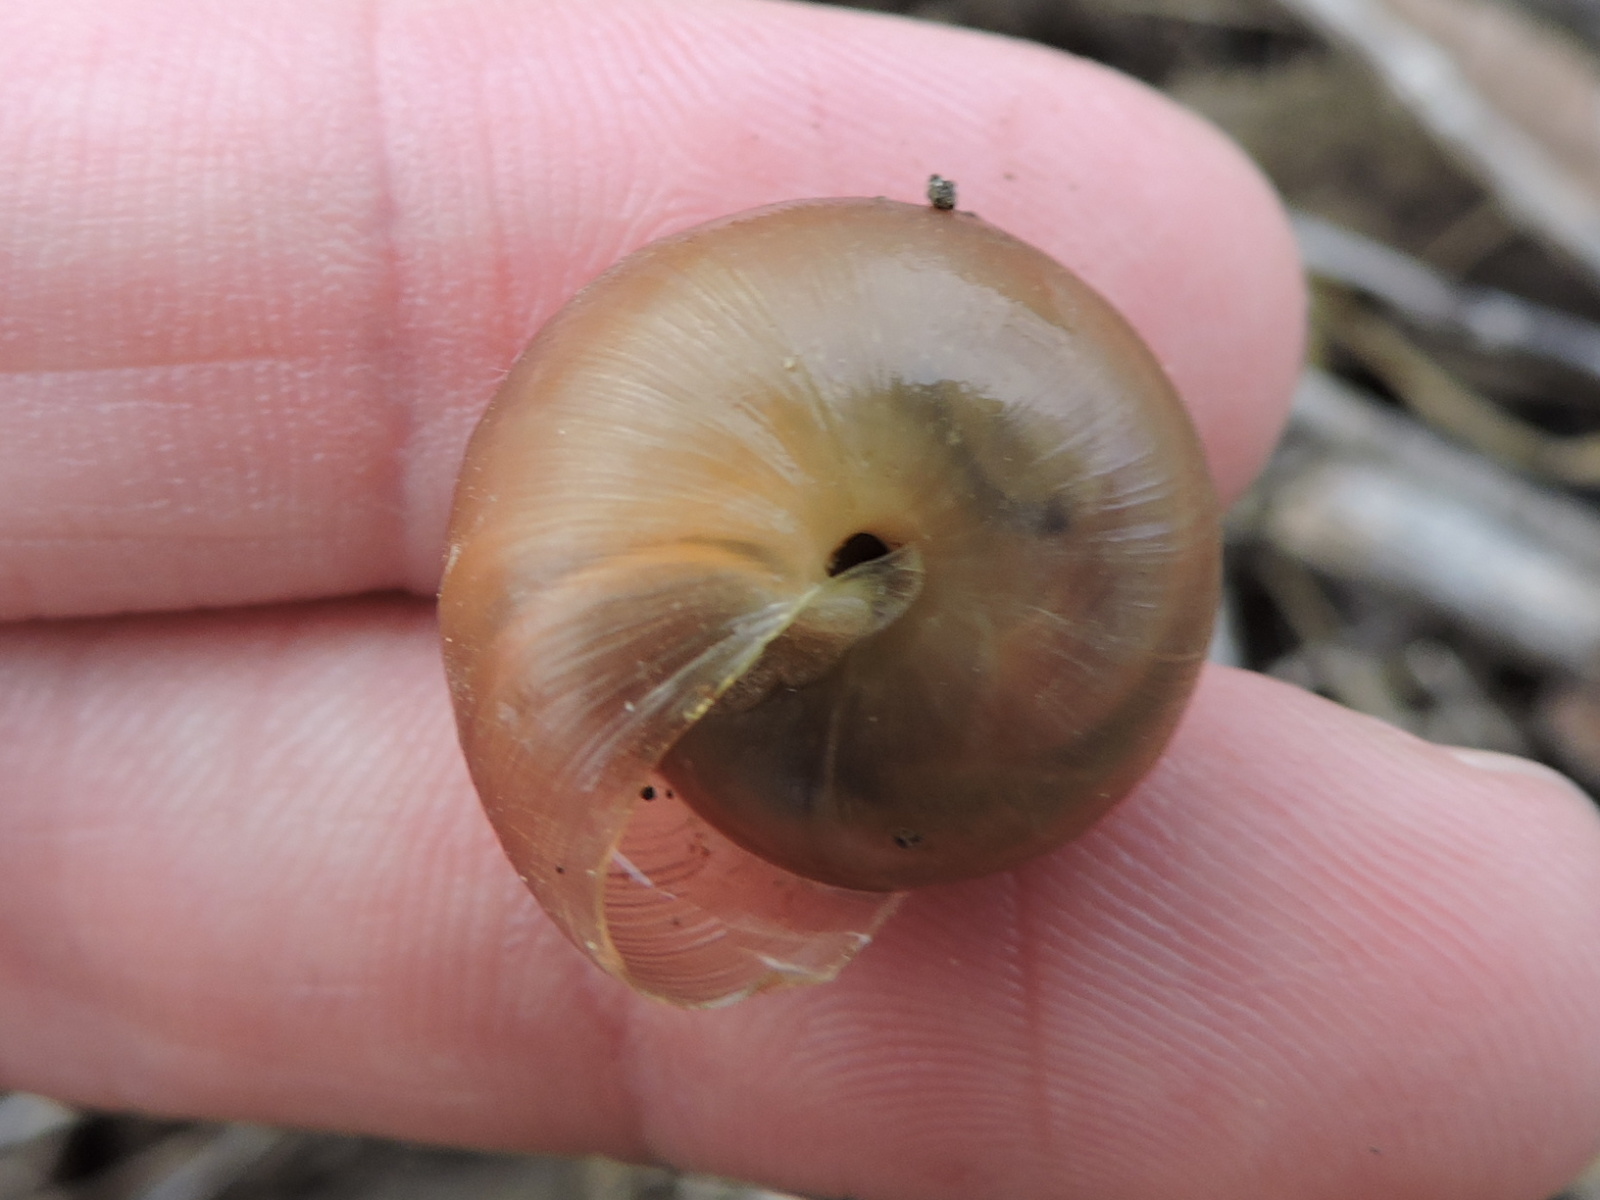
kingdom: Animalia
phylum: Mollusca
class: Gastropoda
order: Stylommatophora
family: Polygyridae
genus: Mesodon
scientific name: Mesodon thyroidus
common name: White-lip globe
